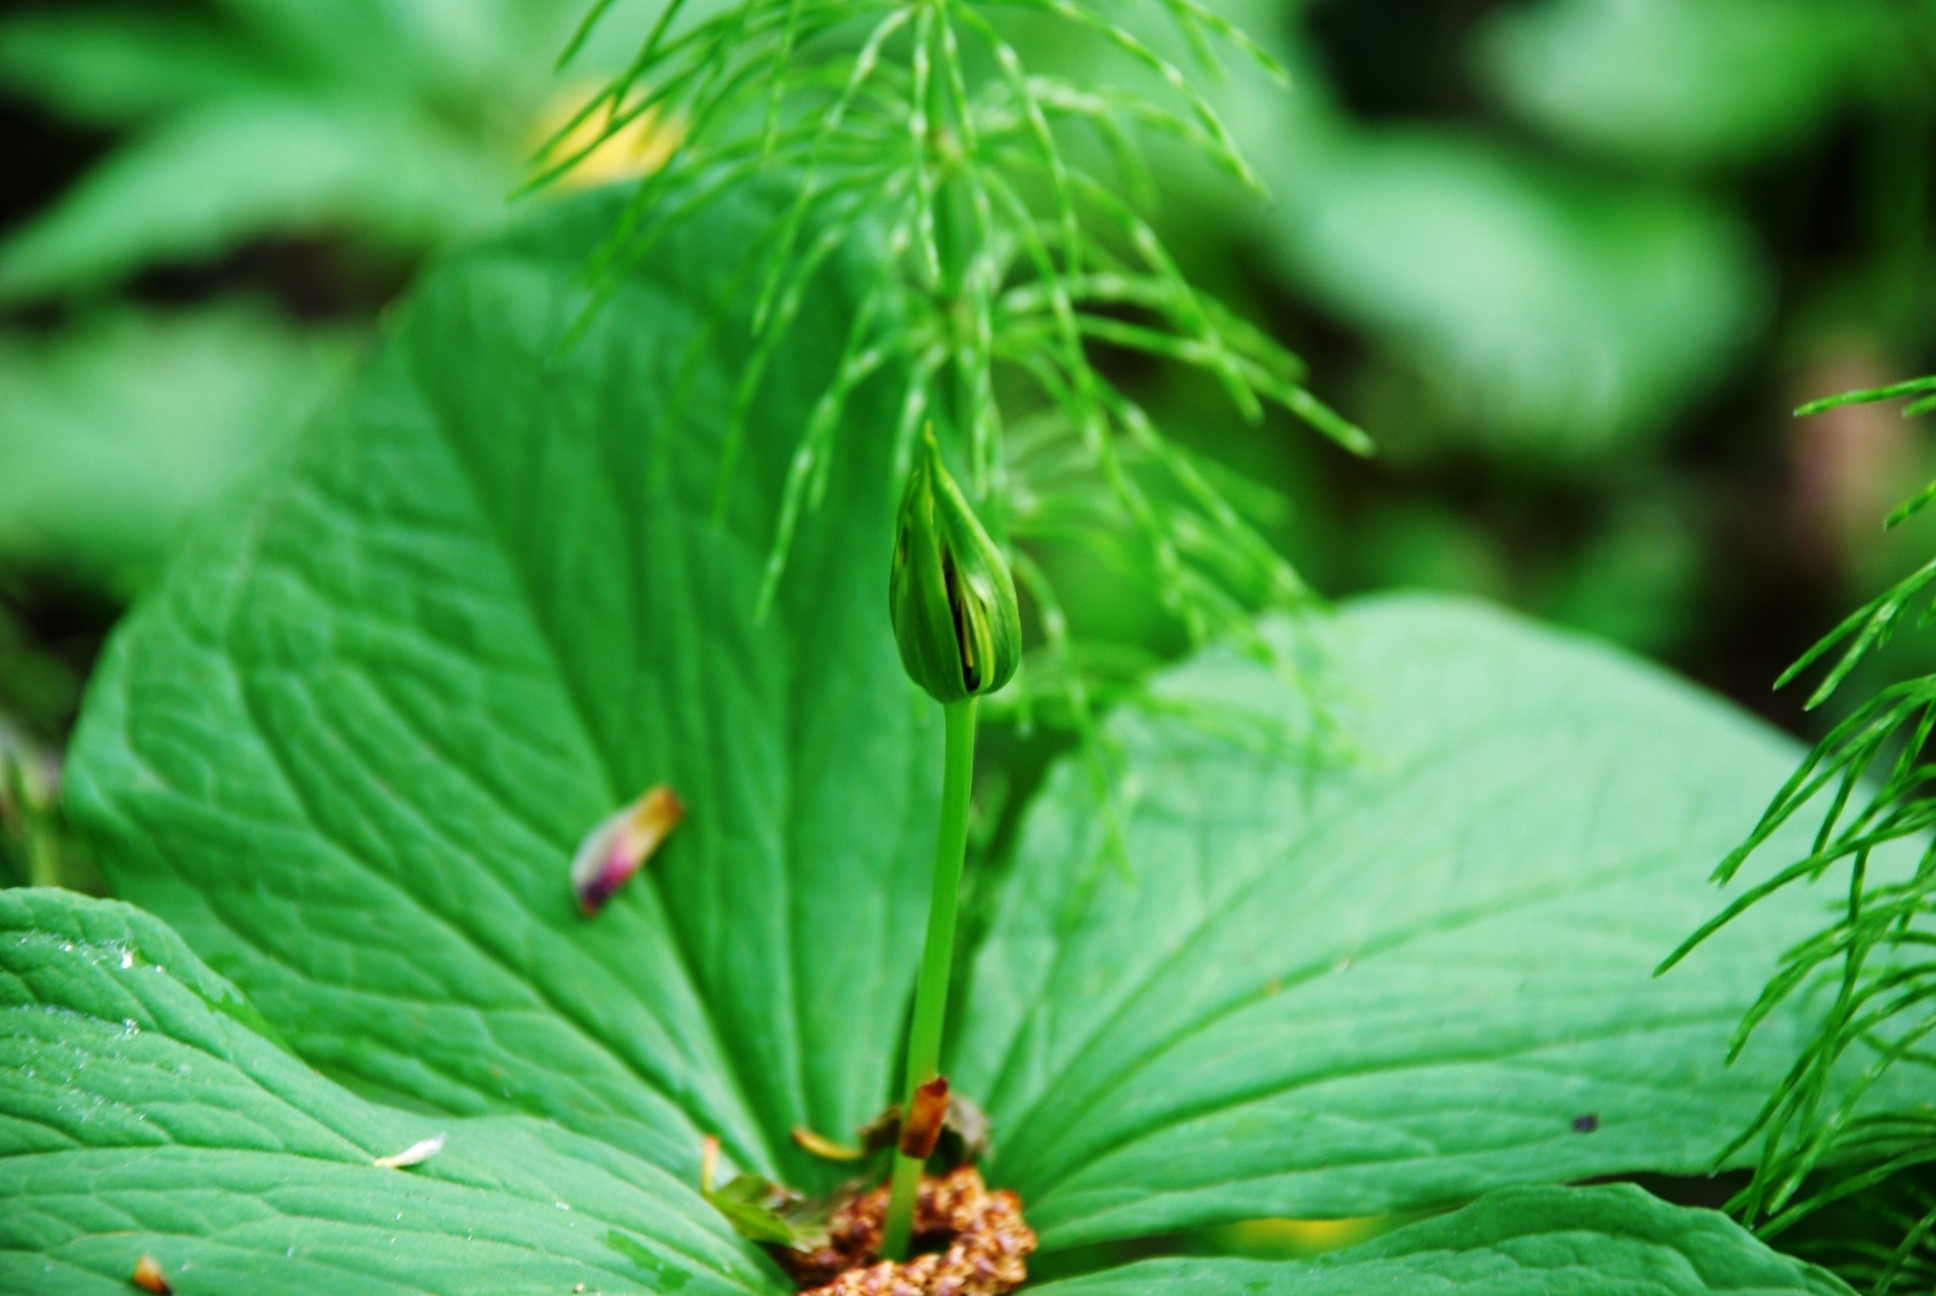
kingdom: Plantae
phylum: Tracheophyta
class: Liliopsida
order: Liliales
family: Melanthiaceae
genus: Paris
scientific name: Paris quadrifolia
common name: Herb-paris
